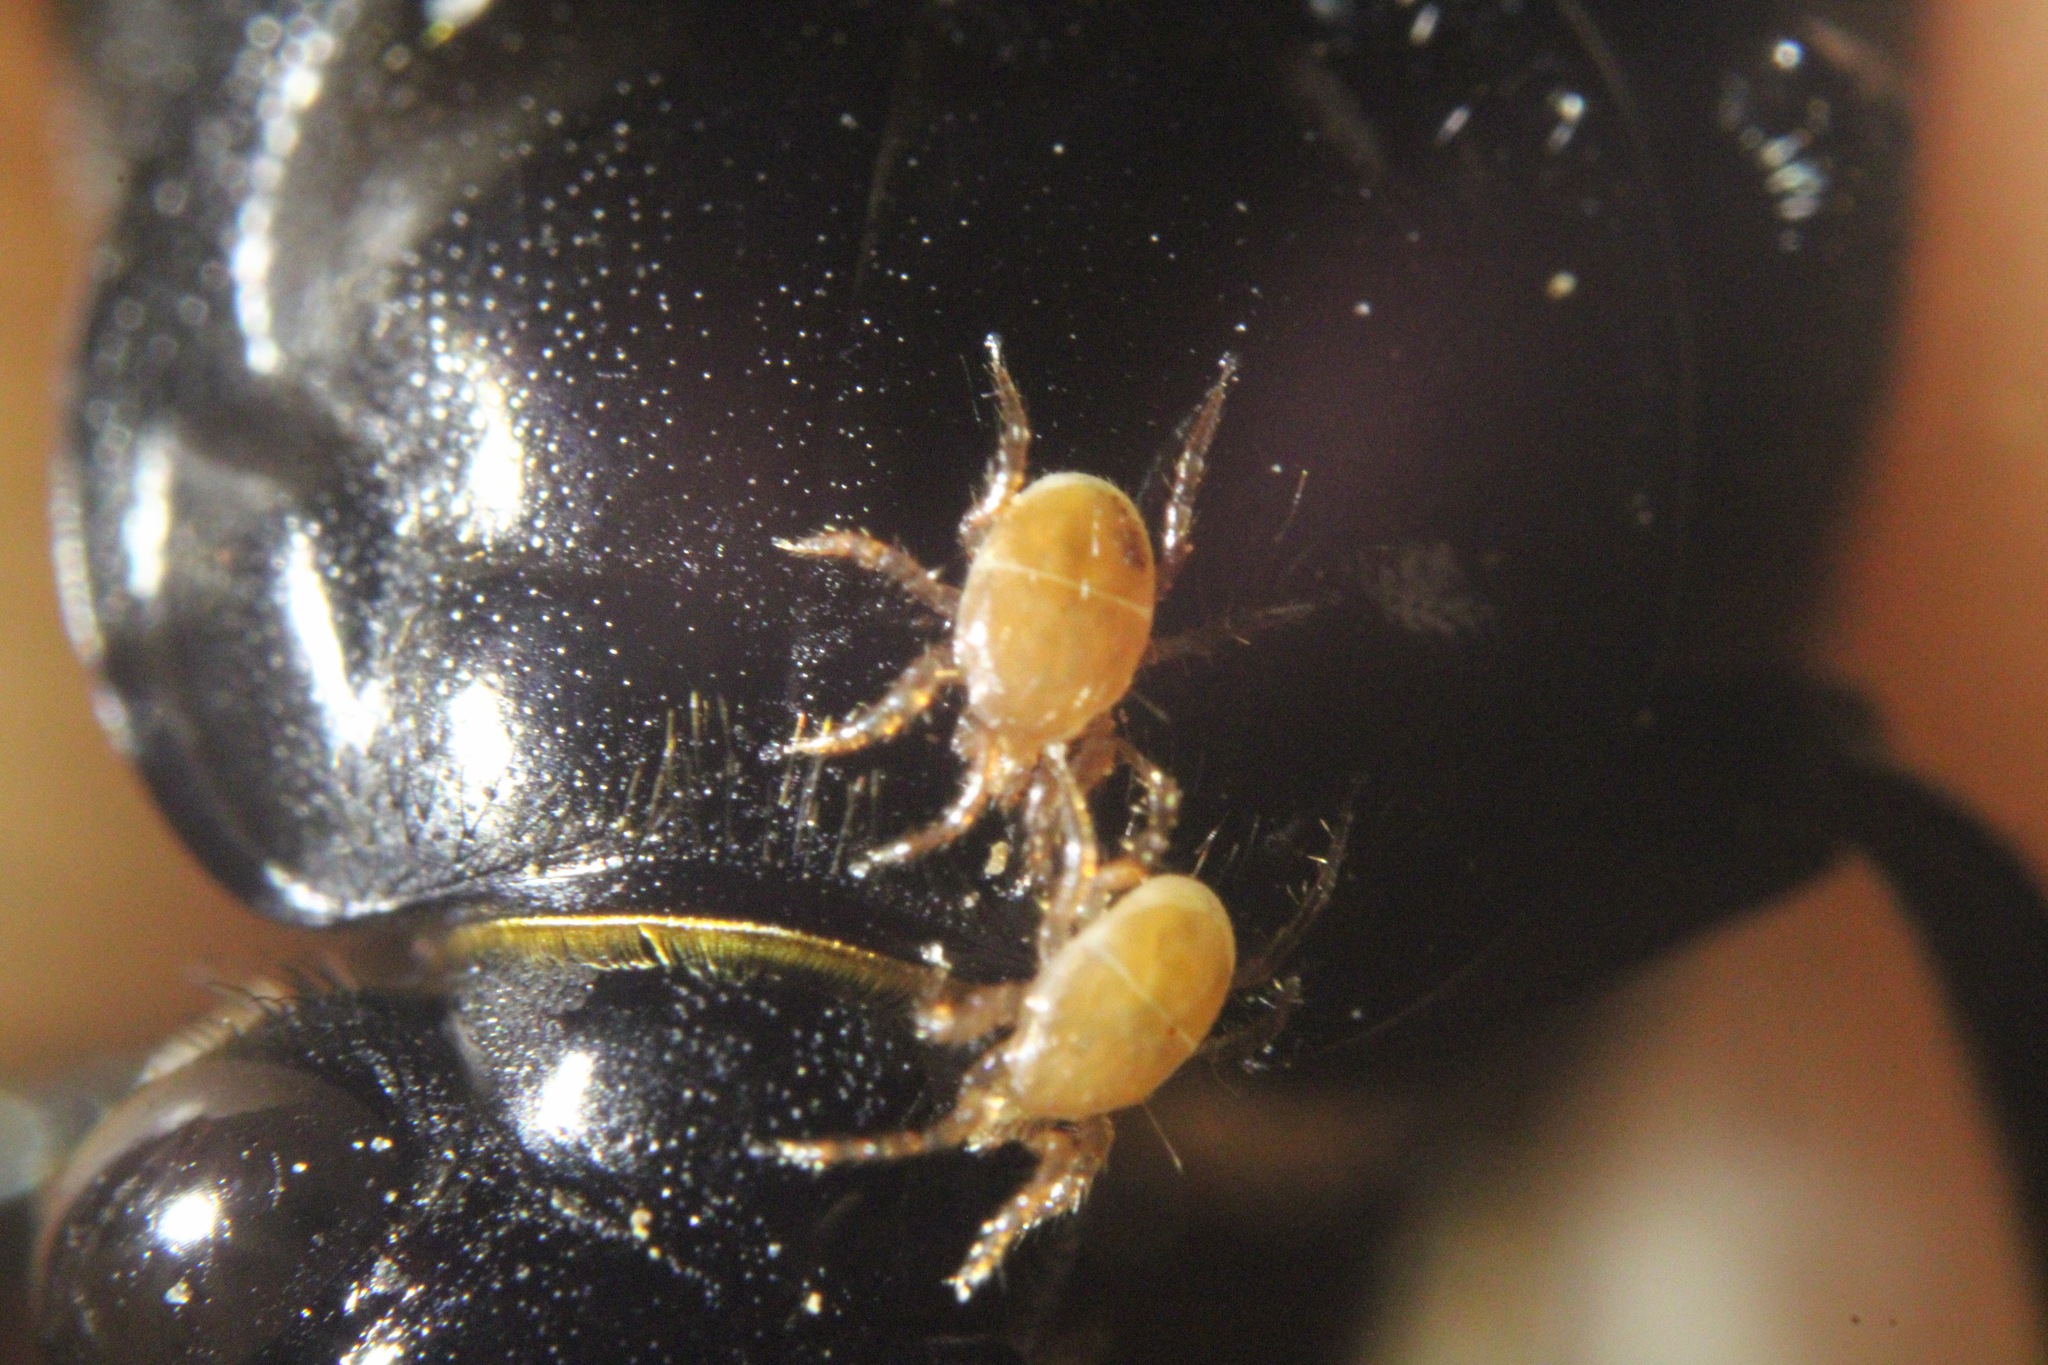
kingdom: Animalia
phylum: Arthropoda
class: Insecta
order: Coleoptera
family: Staphylinidae
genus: Nicrophorus
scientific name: Nicrophorus orbicollis
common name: Roundneck sexton beetle
